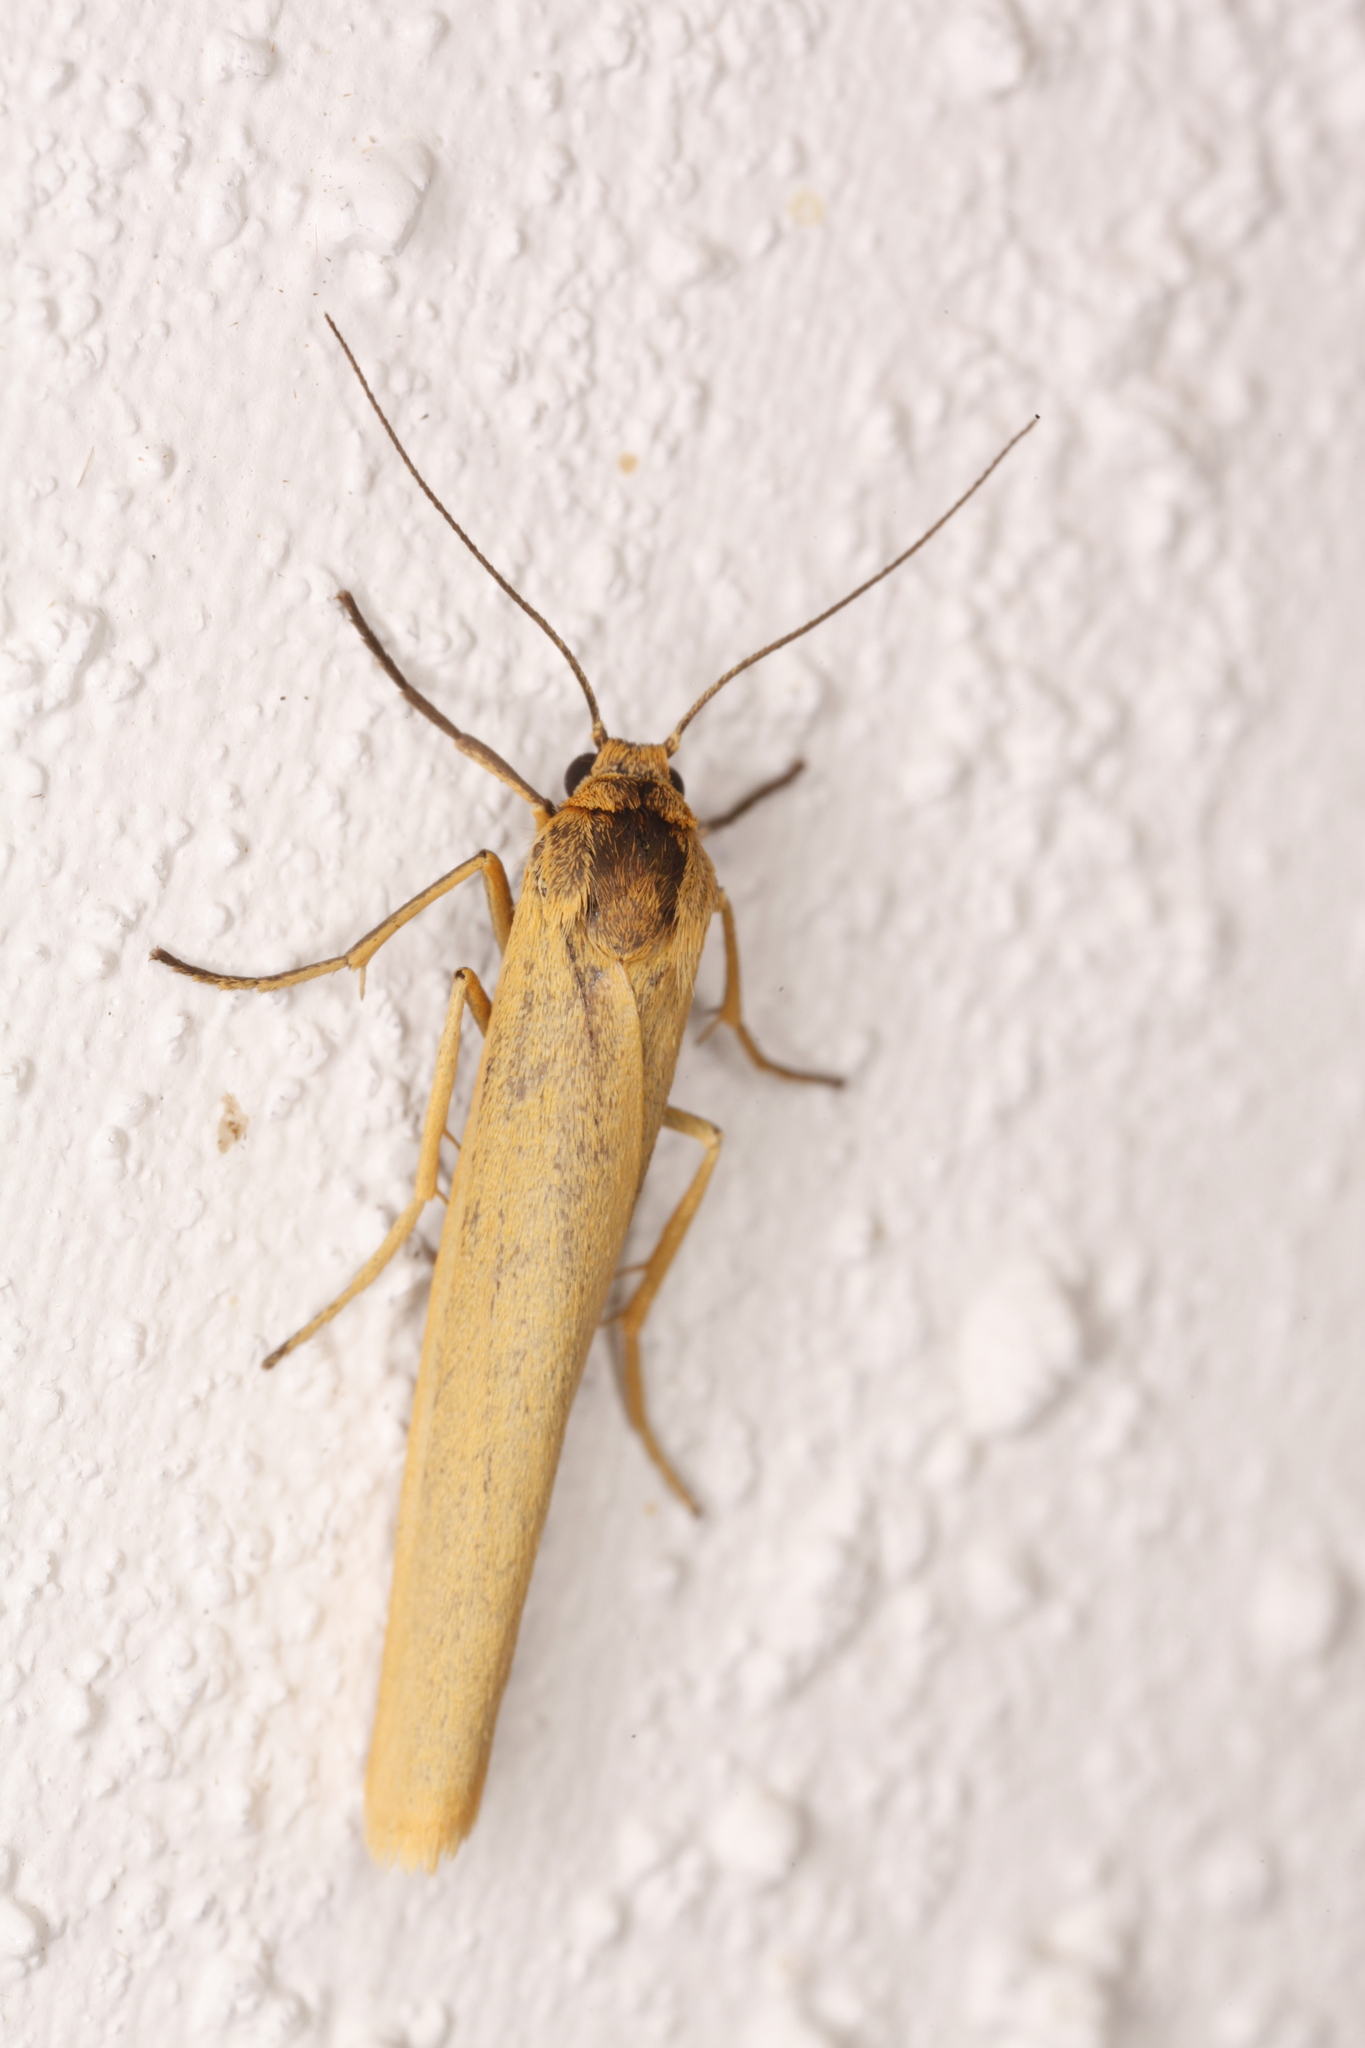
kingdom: Animalia
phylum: Arthropoda
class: Insecta
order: Lepidoptera
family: Erebidae
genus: Indalia
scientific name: Indalia lutarella
